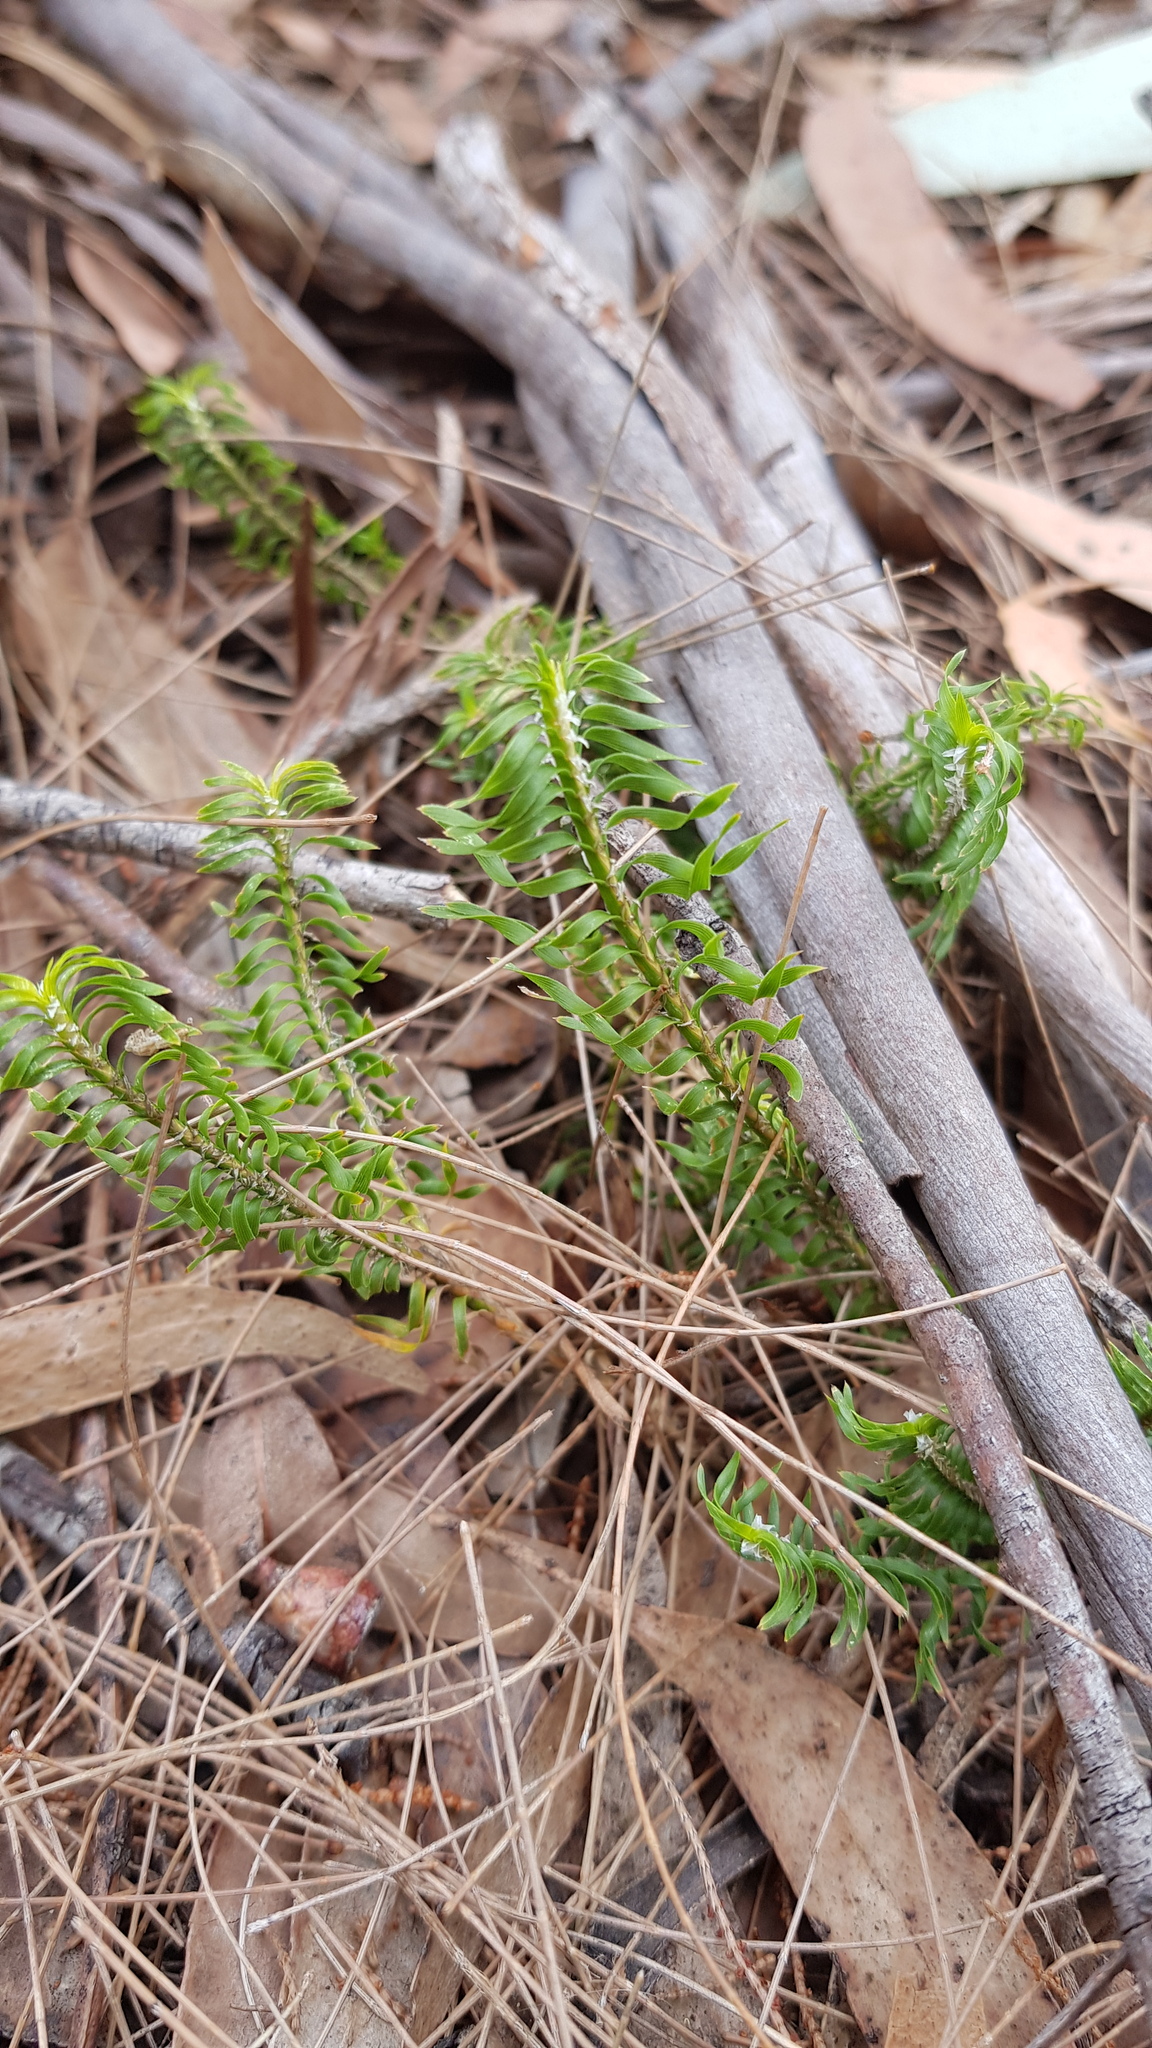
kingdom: Plantae
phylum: Tracheophyta
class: Liliopsida
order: Asparagales
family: Asparagaceae
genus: Lomandra
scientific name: Lomandra obliqua
